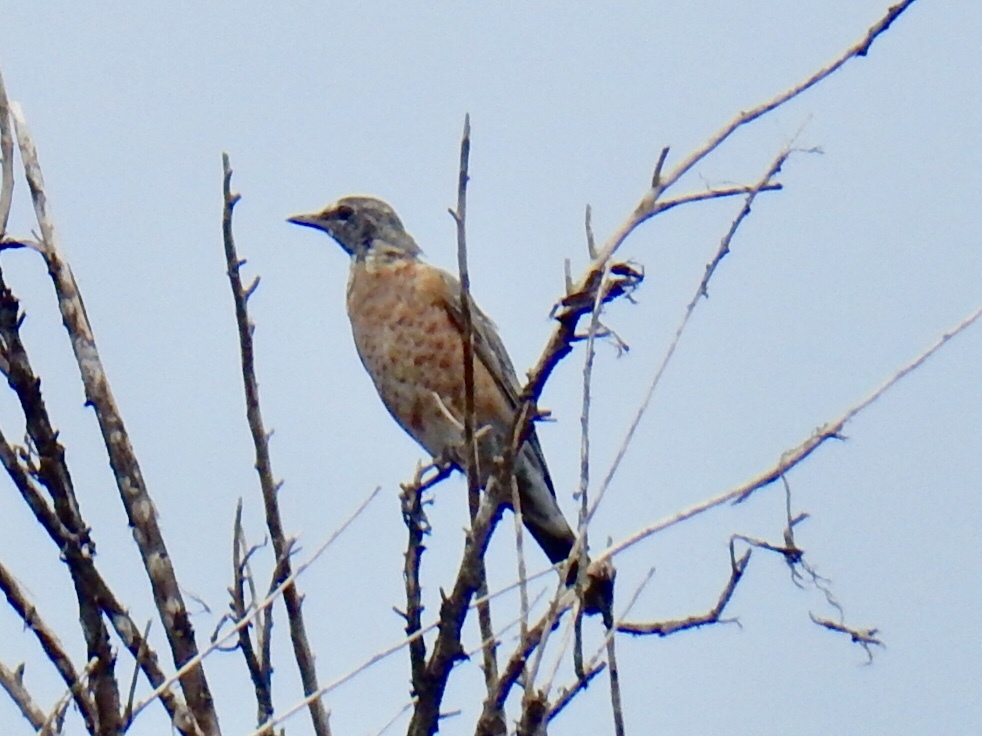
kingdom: Animalia
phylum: Chordata
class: Aves
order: Passeriformes
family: Turdidae
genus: Turdus
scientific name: Turdus migratorius
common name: American robin
